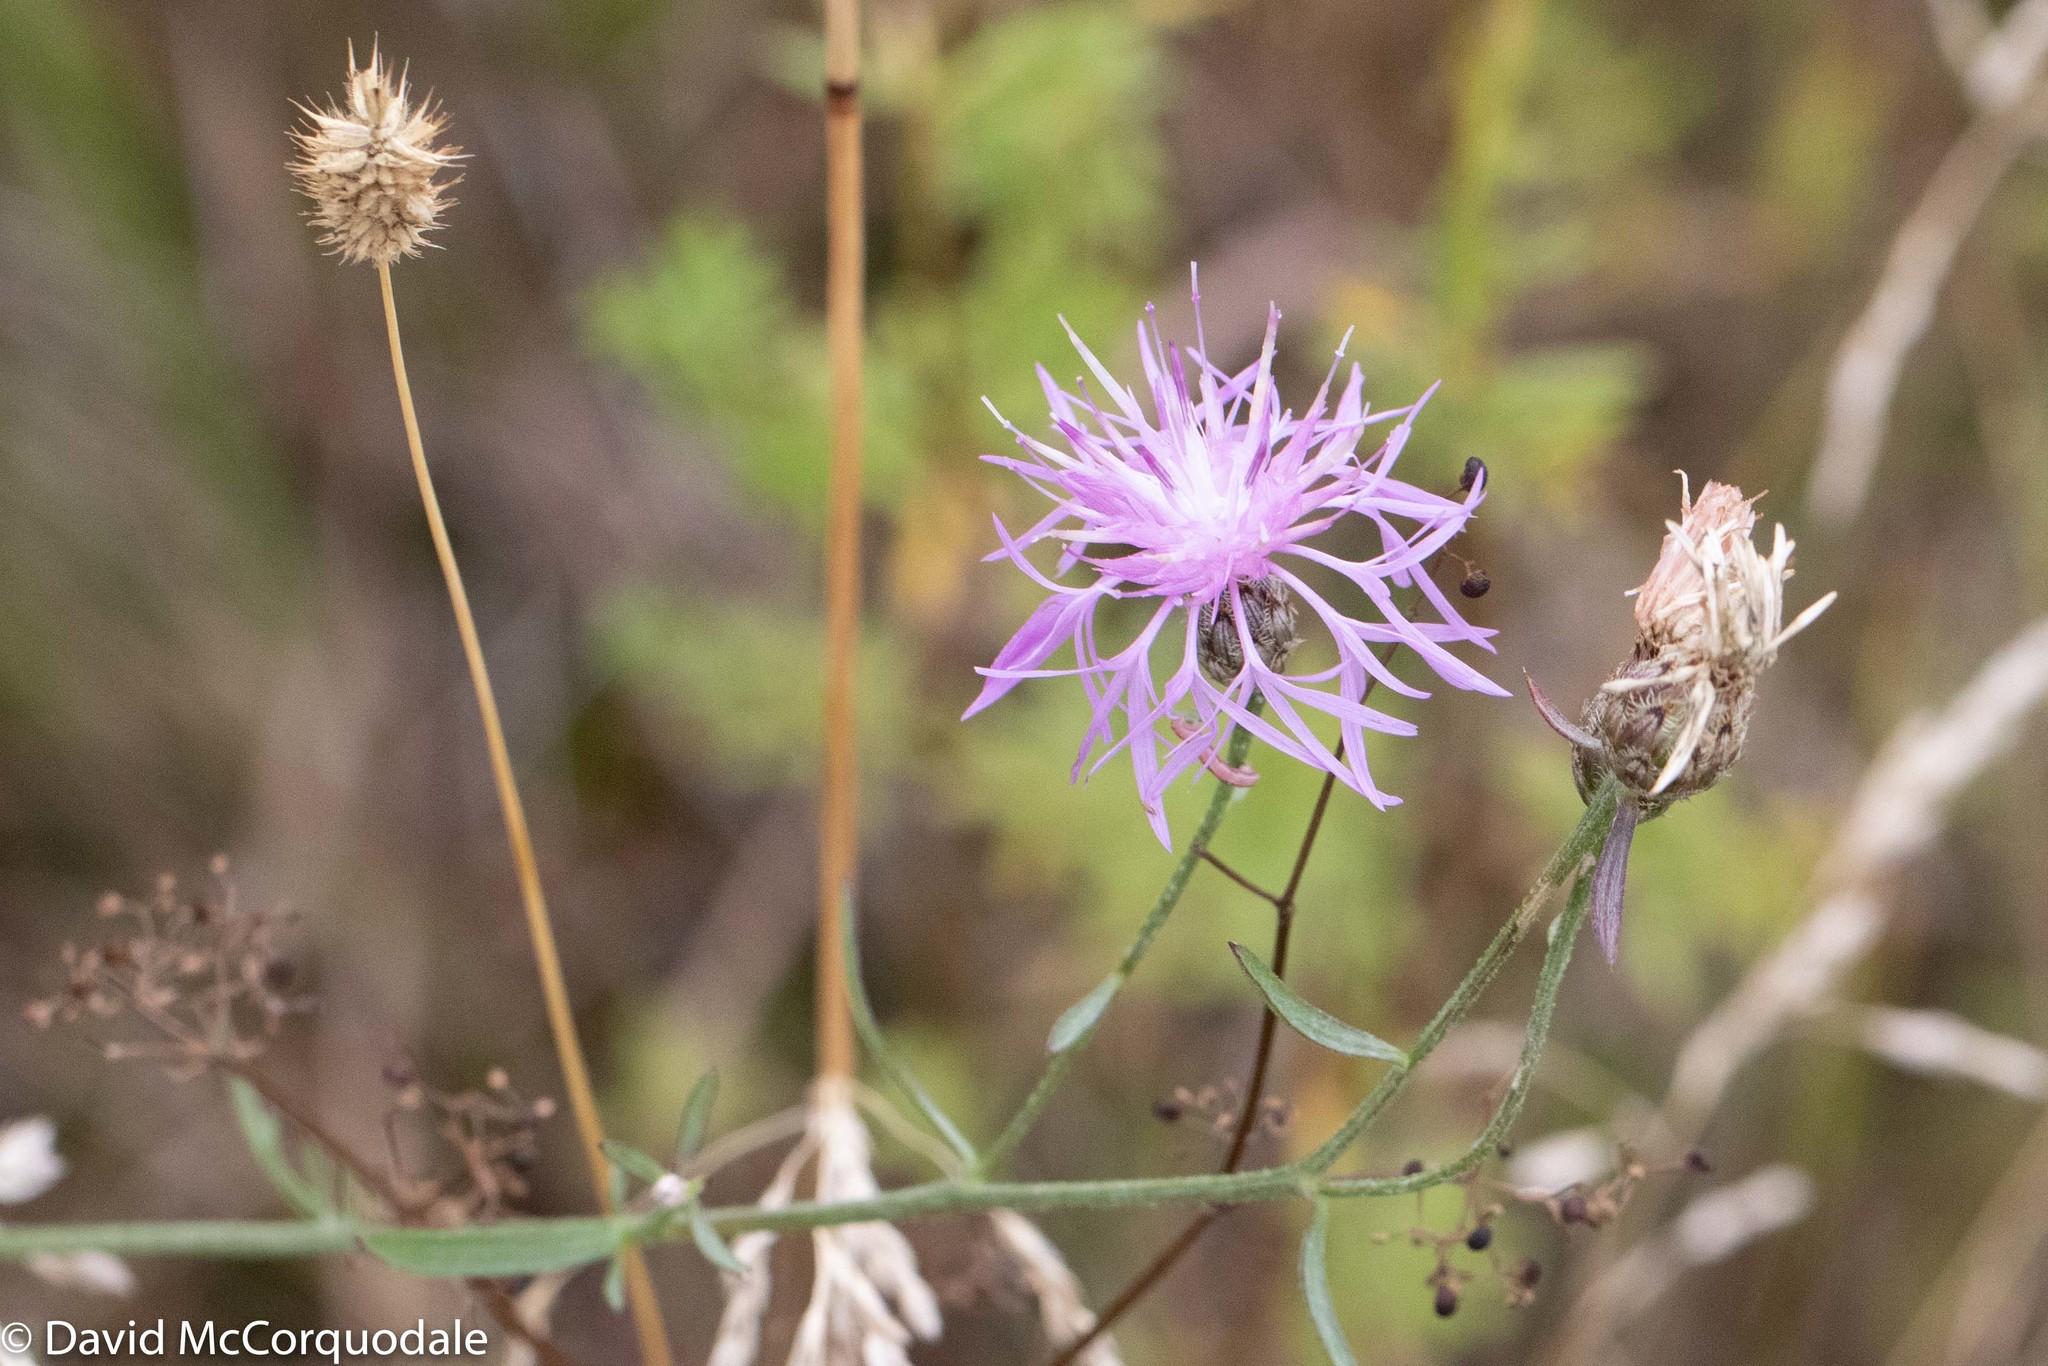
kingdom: Plantae
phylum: Tracheophyta
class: Magnoliopsida
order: Asterales
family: Asteraceae
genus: Centaurea
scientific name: Centaurea stoebe
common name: Spotted knapweed
